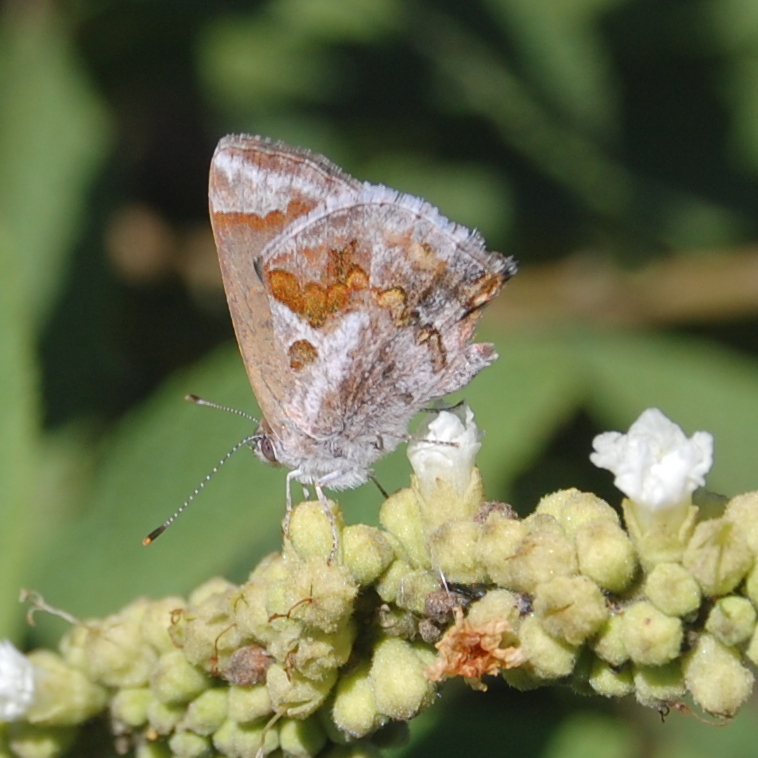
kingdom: Animalia
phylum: Arthropoda
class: Insecta
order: Lepidoptera
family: Lycaenidae
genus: Strymon
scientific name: Strymon bazochii
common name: Lantana scrub-hairstreak
